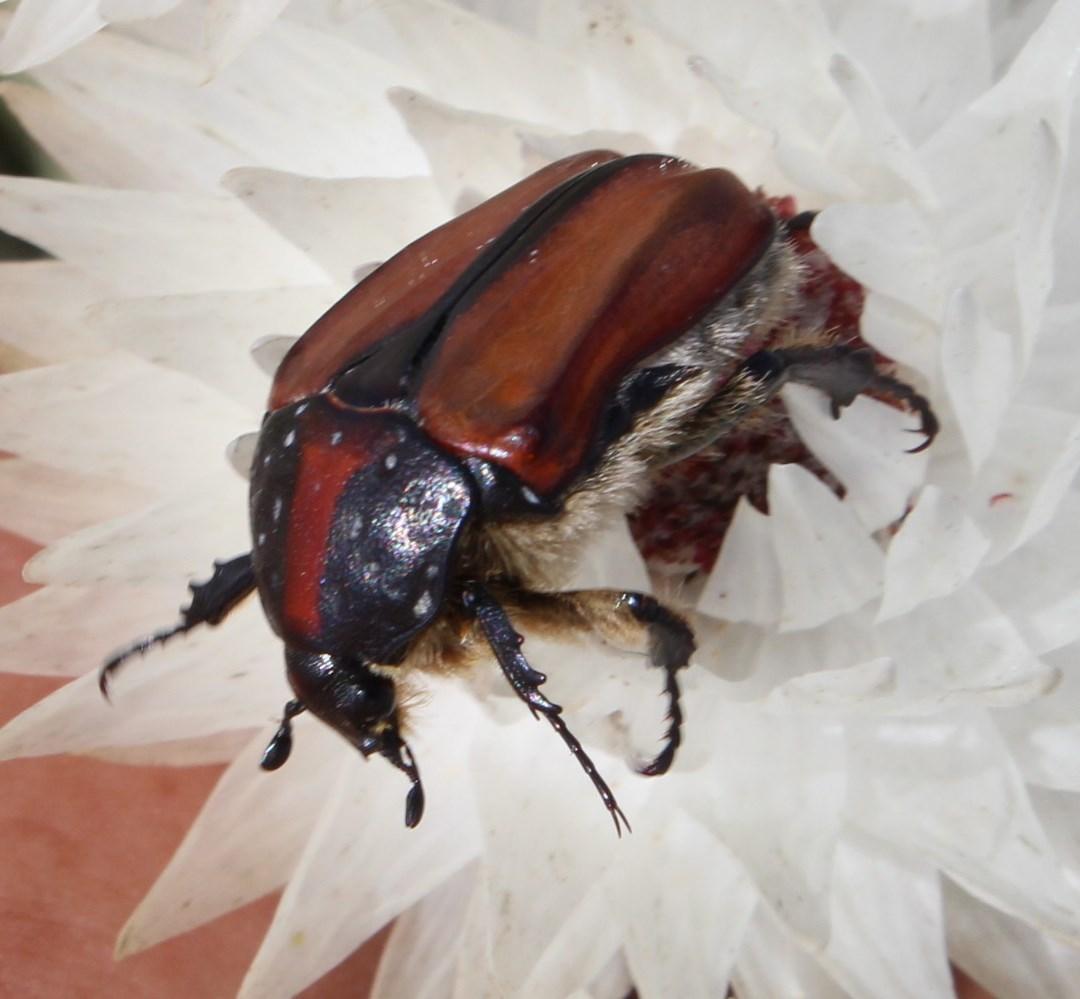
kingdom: Animalia
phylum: Arthropoda
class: Insecta
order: Coleoptera
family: Scarabaeidae
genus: Trichostetha
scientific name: Trichostetha capensis
